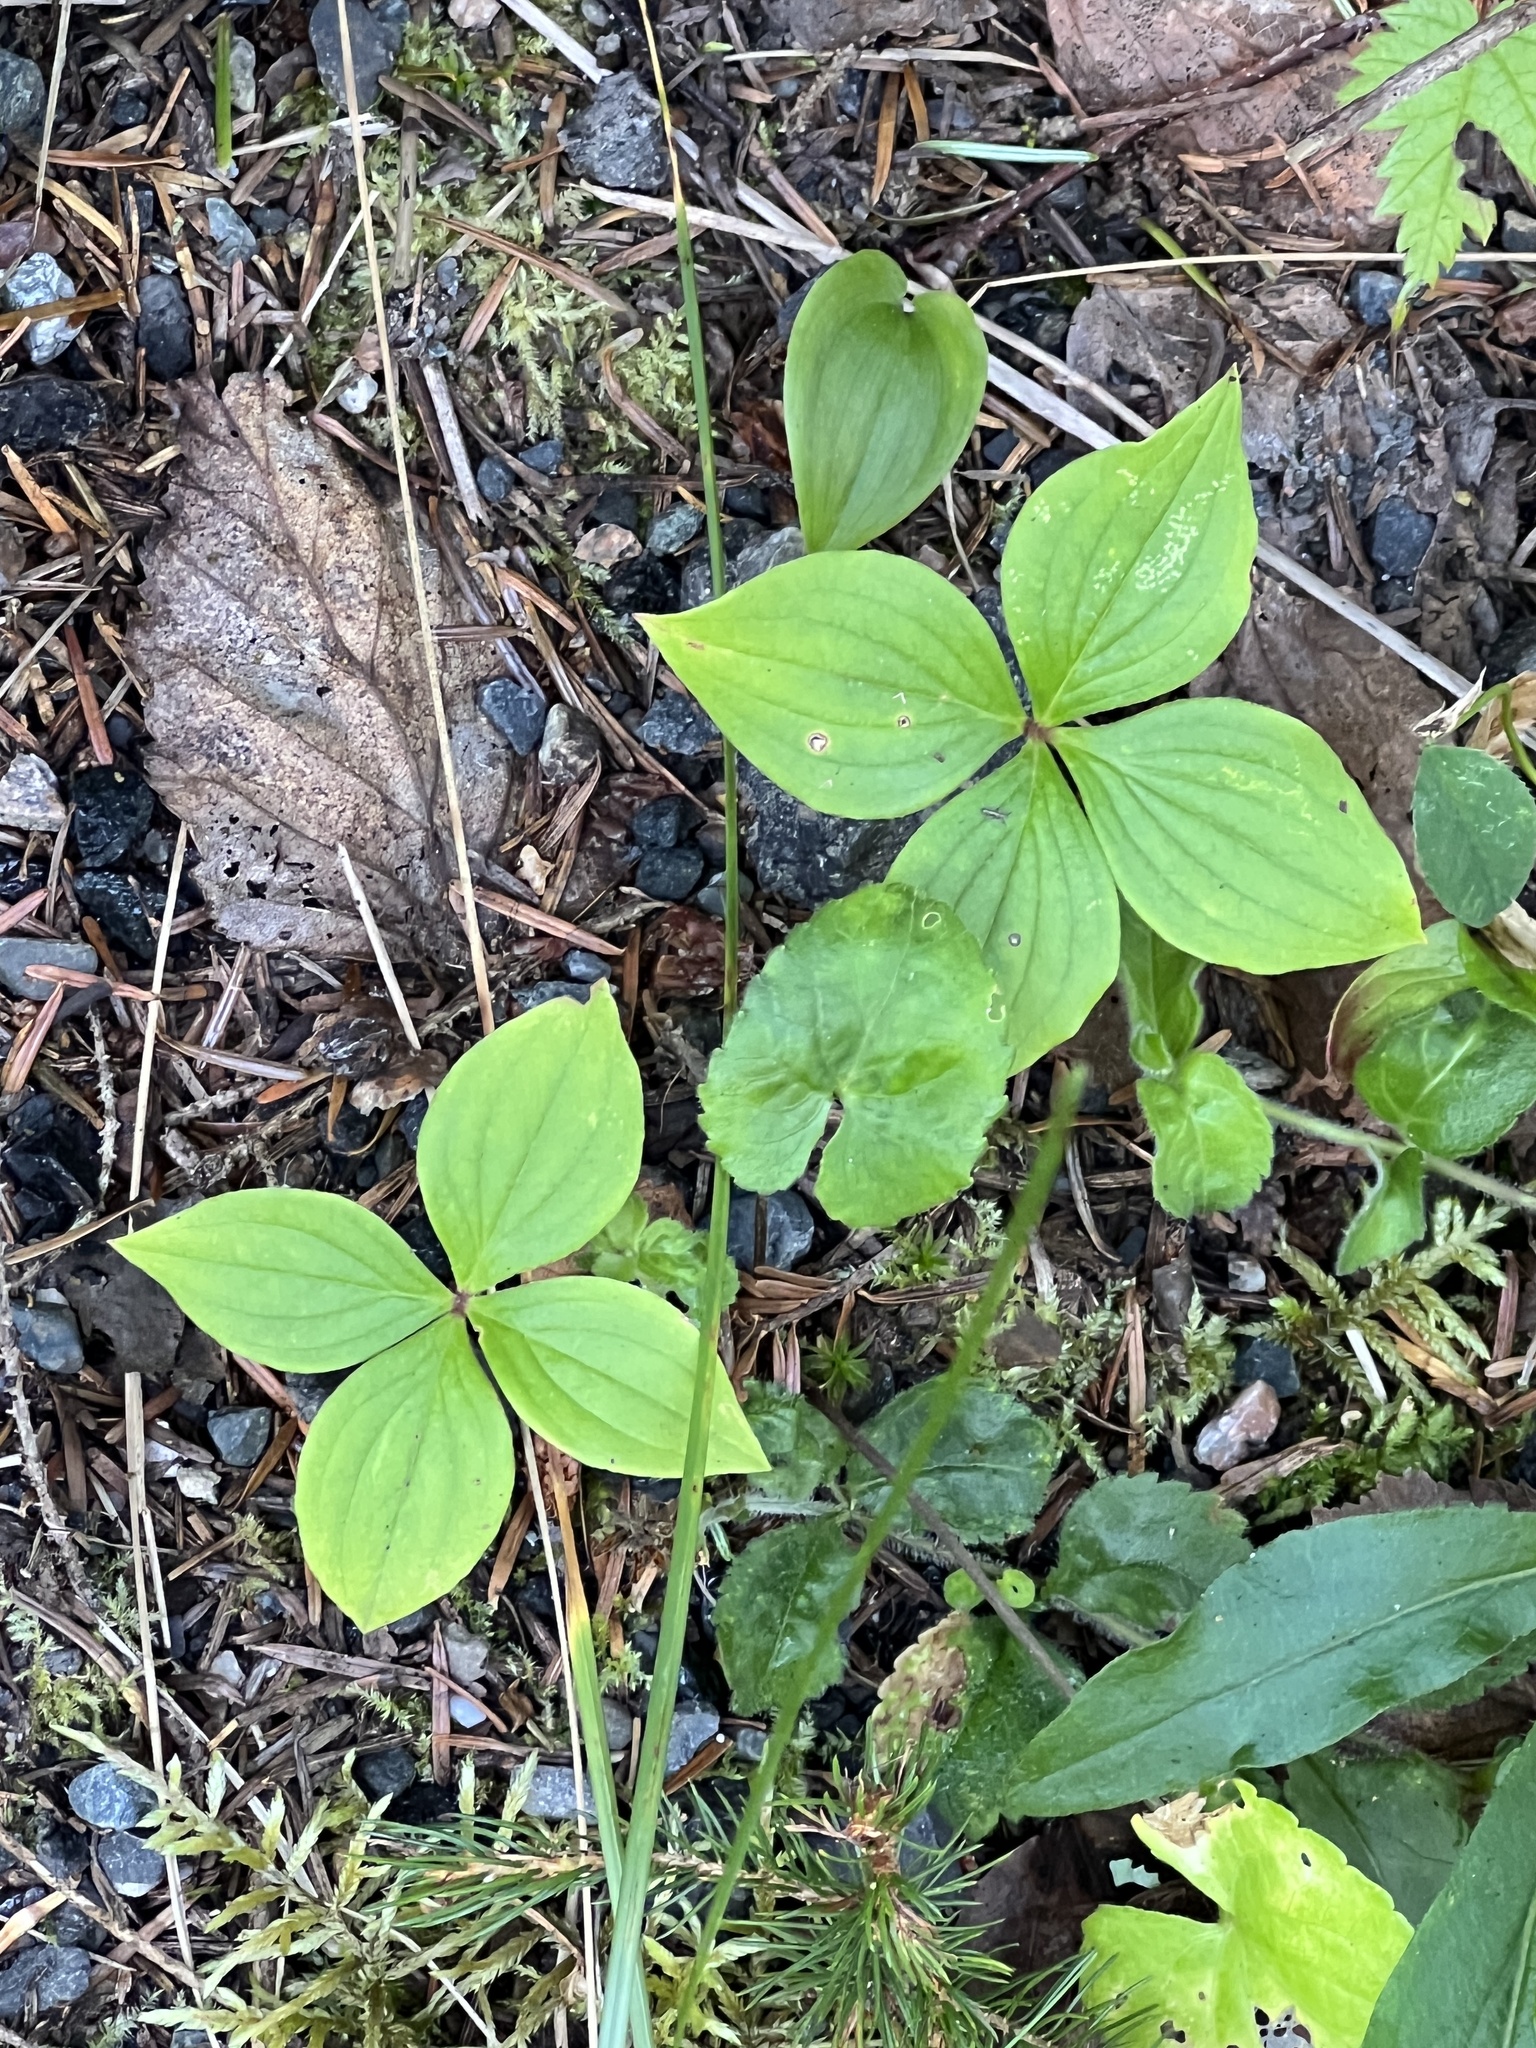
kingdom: Plantae
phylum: Tracheophyta
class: Magnoliopsida
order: Cornales
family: Cornaceae
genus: Cornus
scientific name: Cornus canadensis
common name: Creeping dogwood
